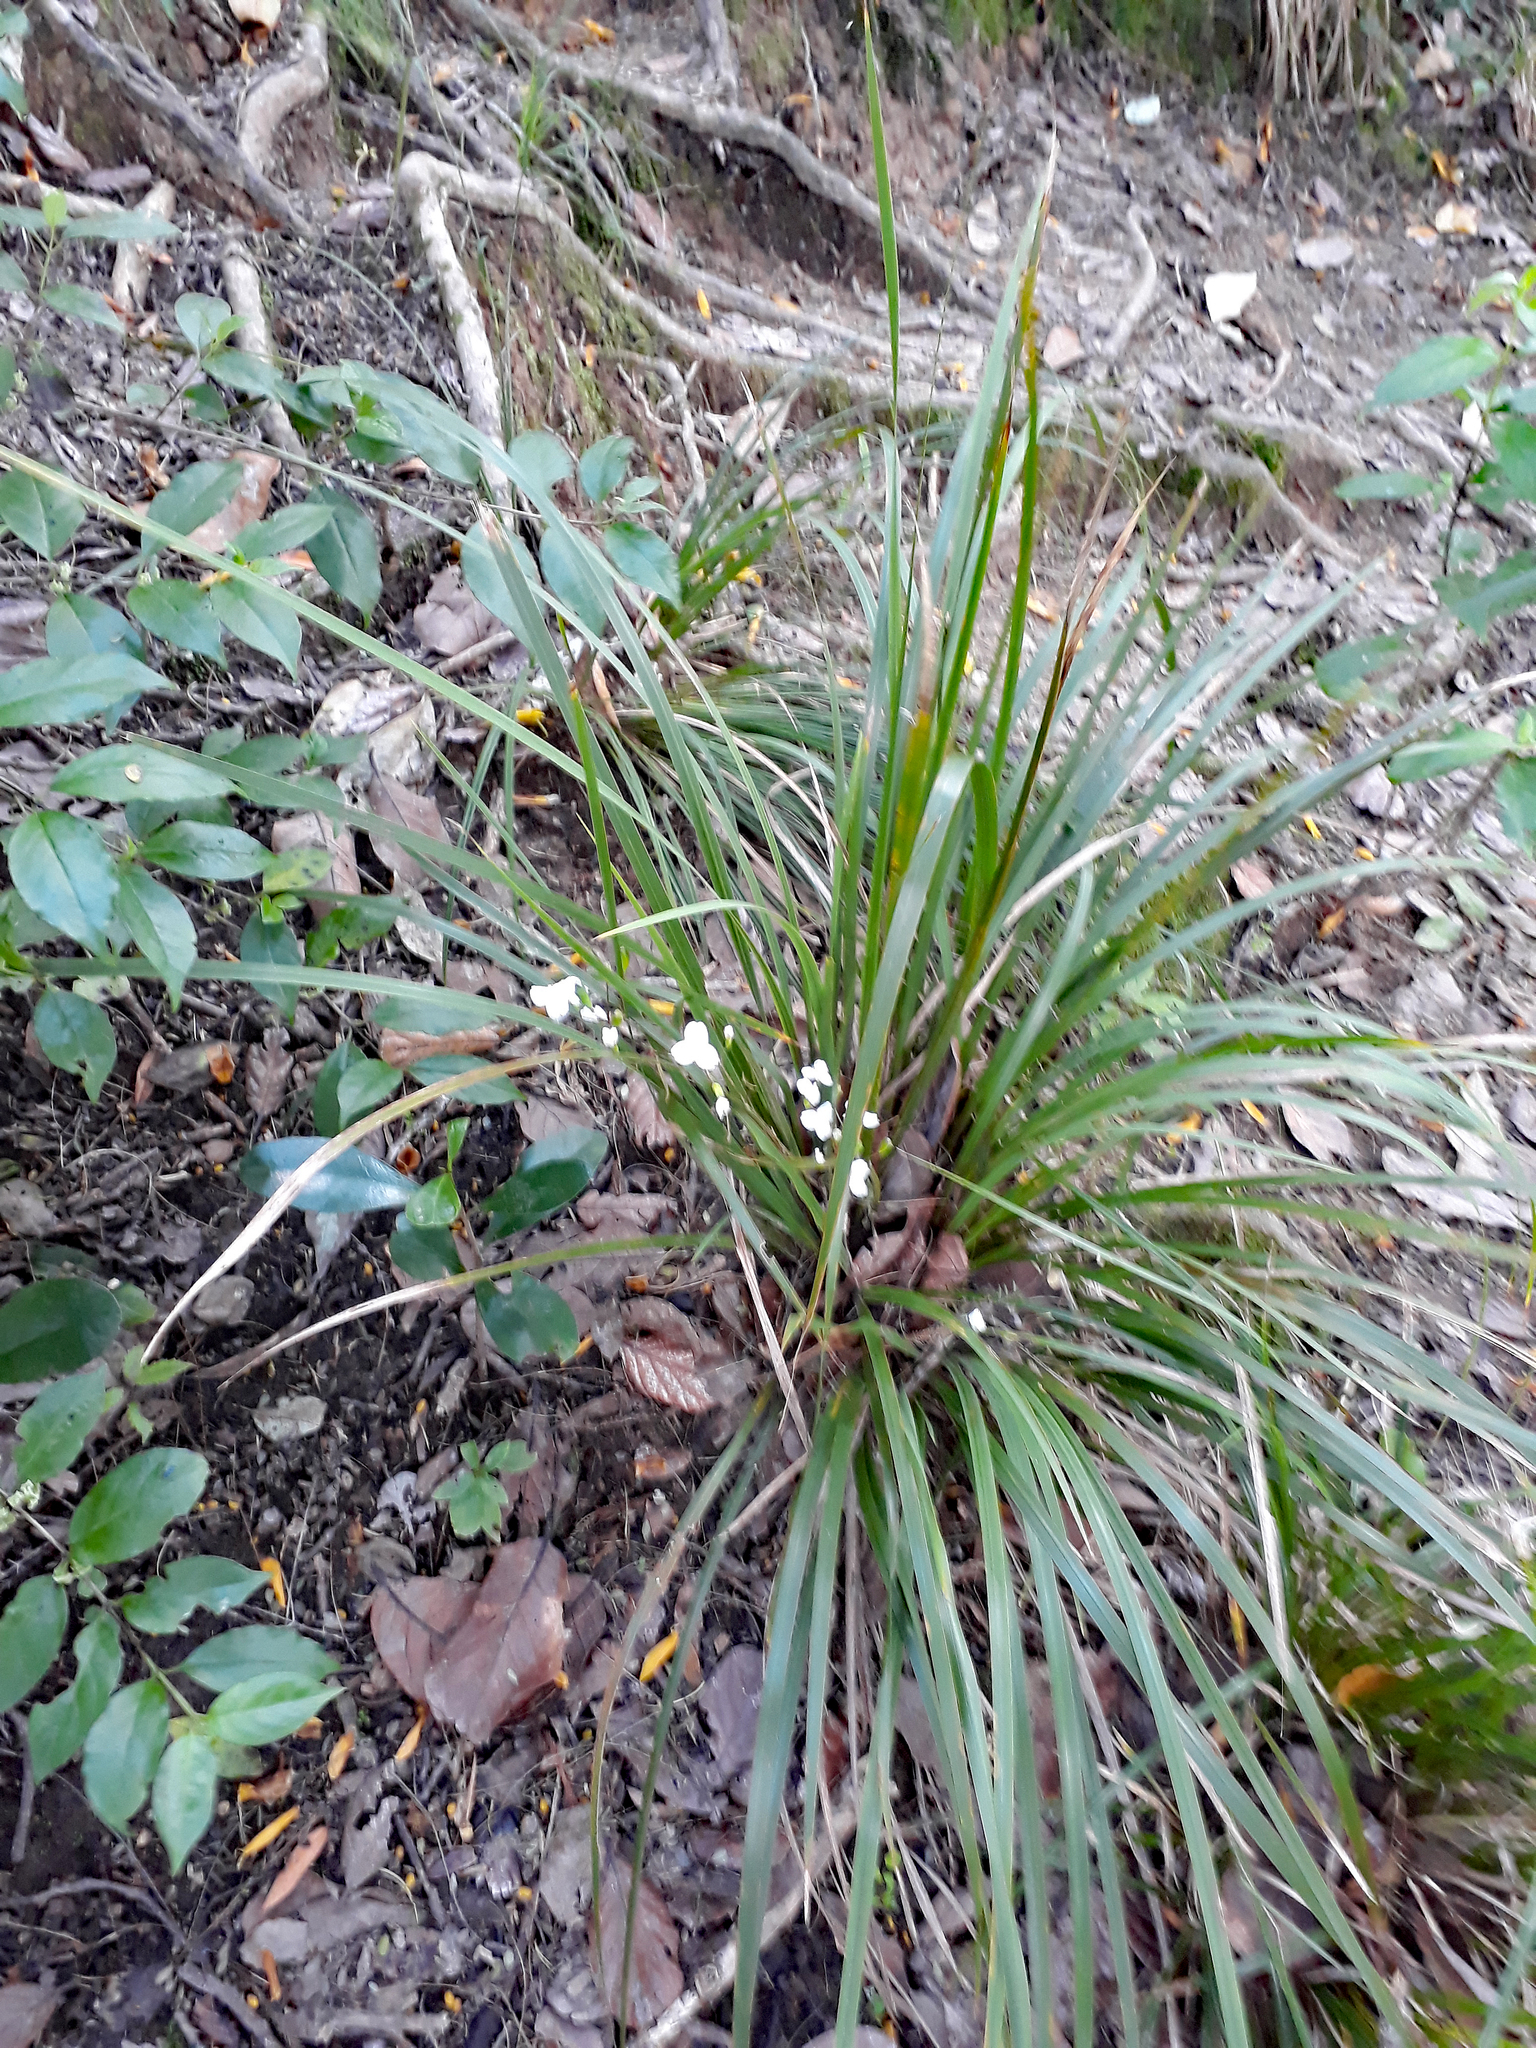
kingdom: Plantae
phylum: Tracheophyta
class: Liliopsida
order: Asparagales
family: Iridaceae
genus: Libertia
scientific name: Libertia ixioides
